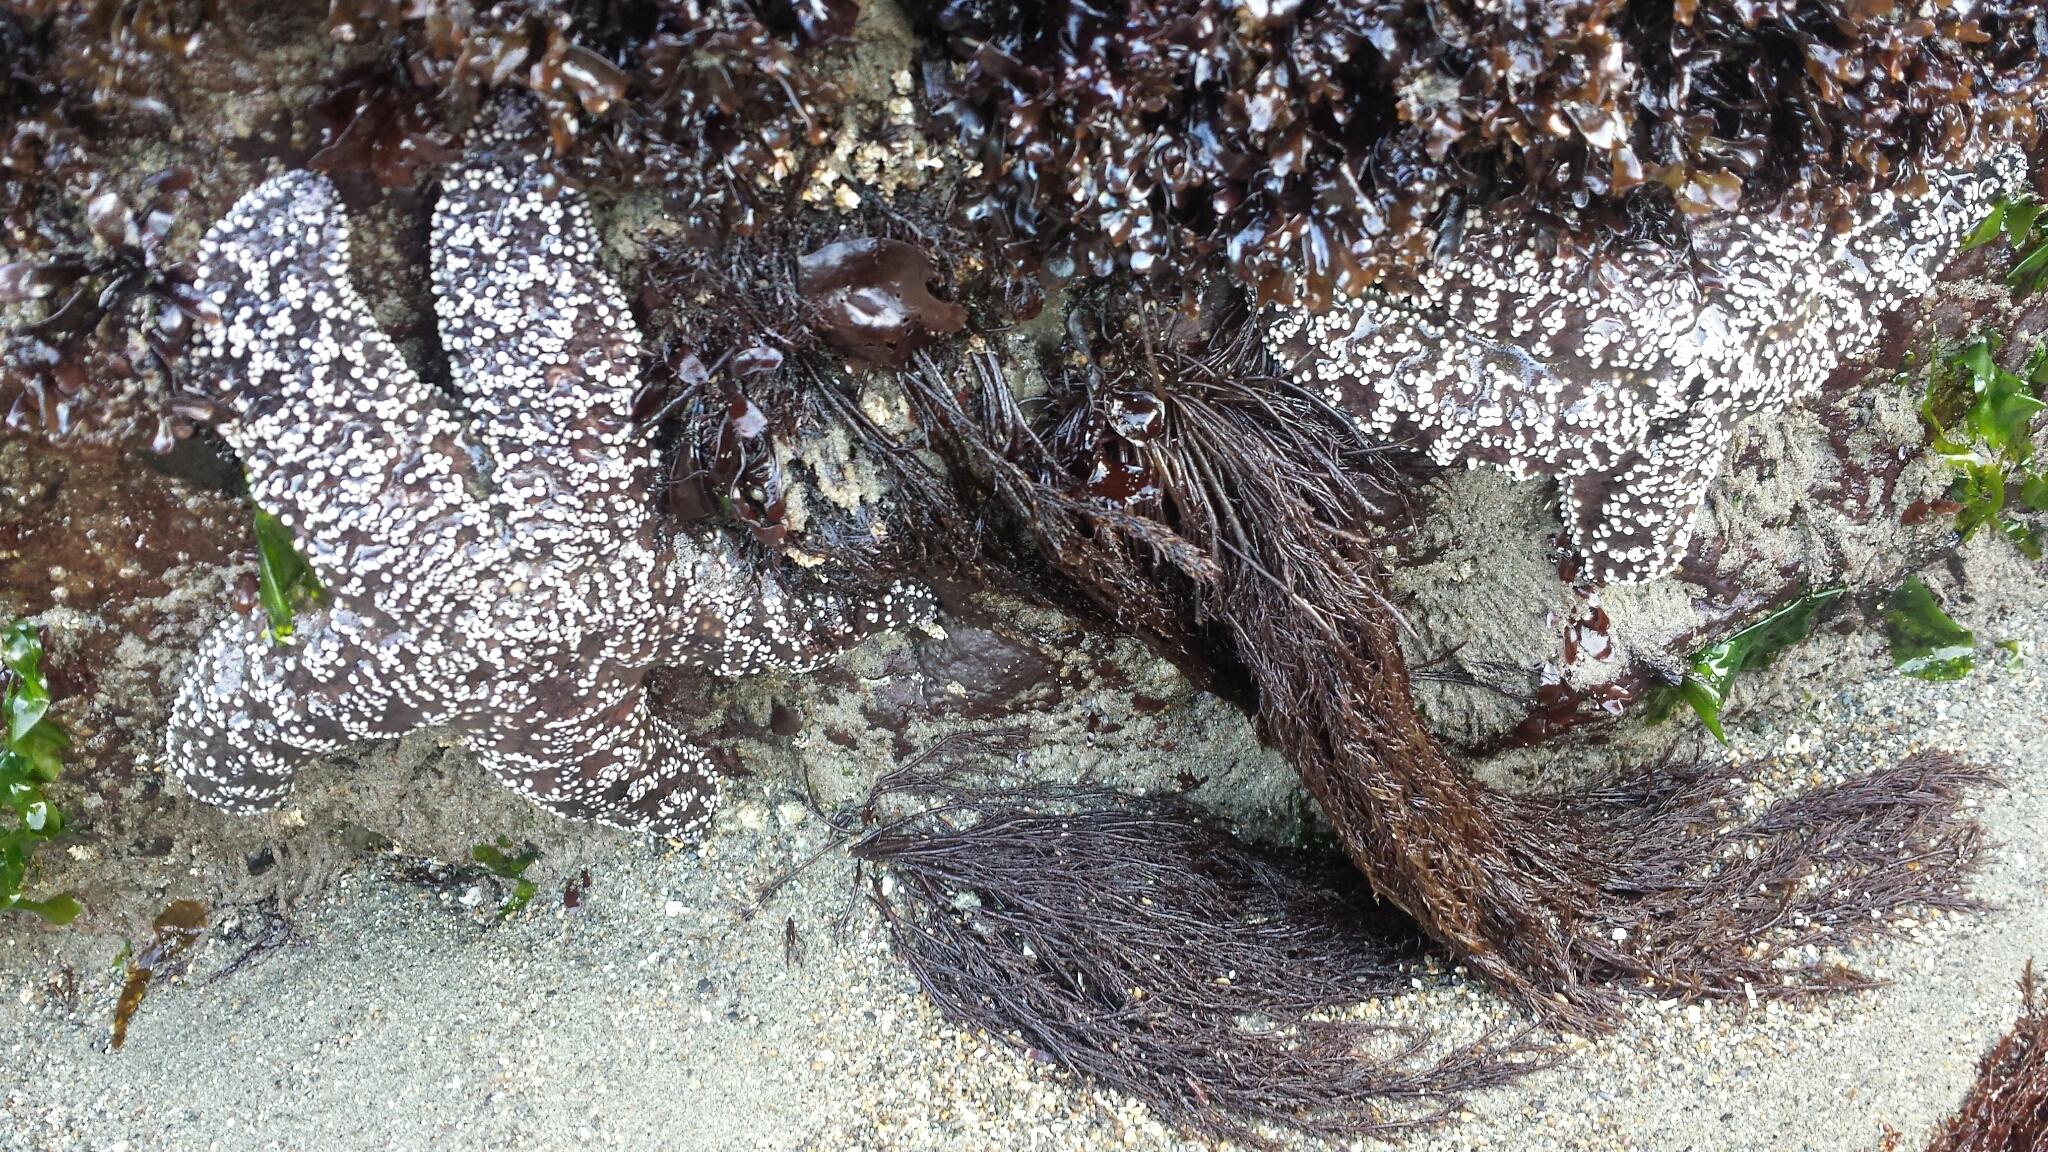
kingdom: Animalia
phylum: Echinodermata
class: Asteroidea
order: Forcipulatida
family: Asteriidae
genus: Pisaster
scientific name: Pisaster ochraceus
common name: Ochre stars
